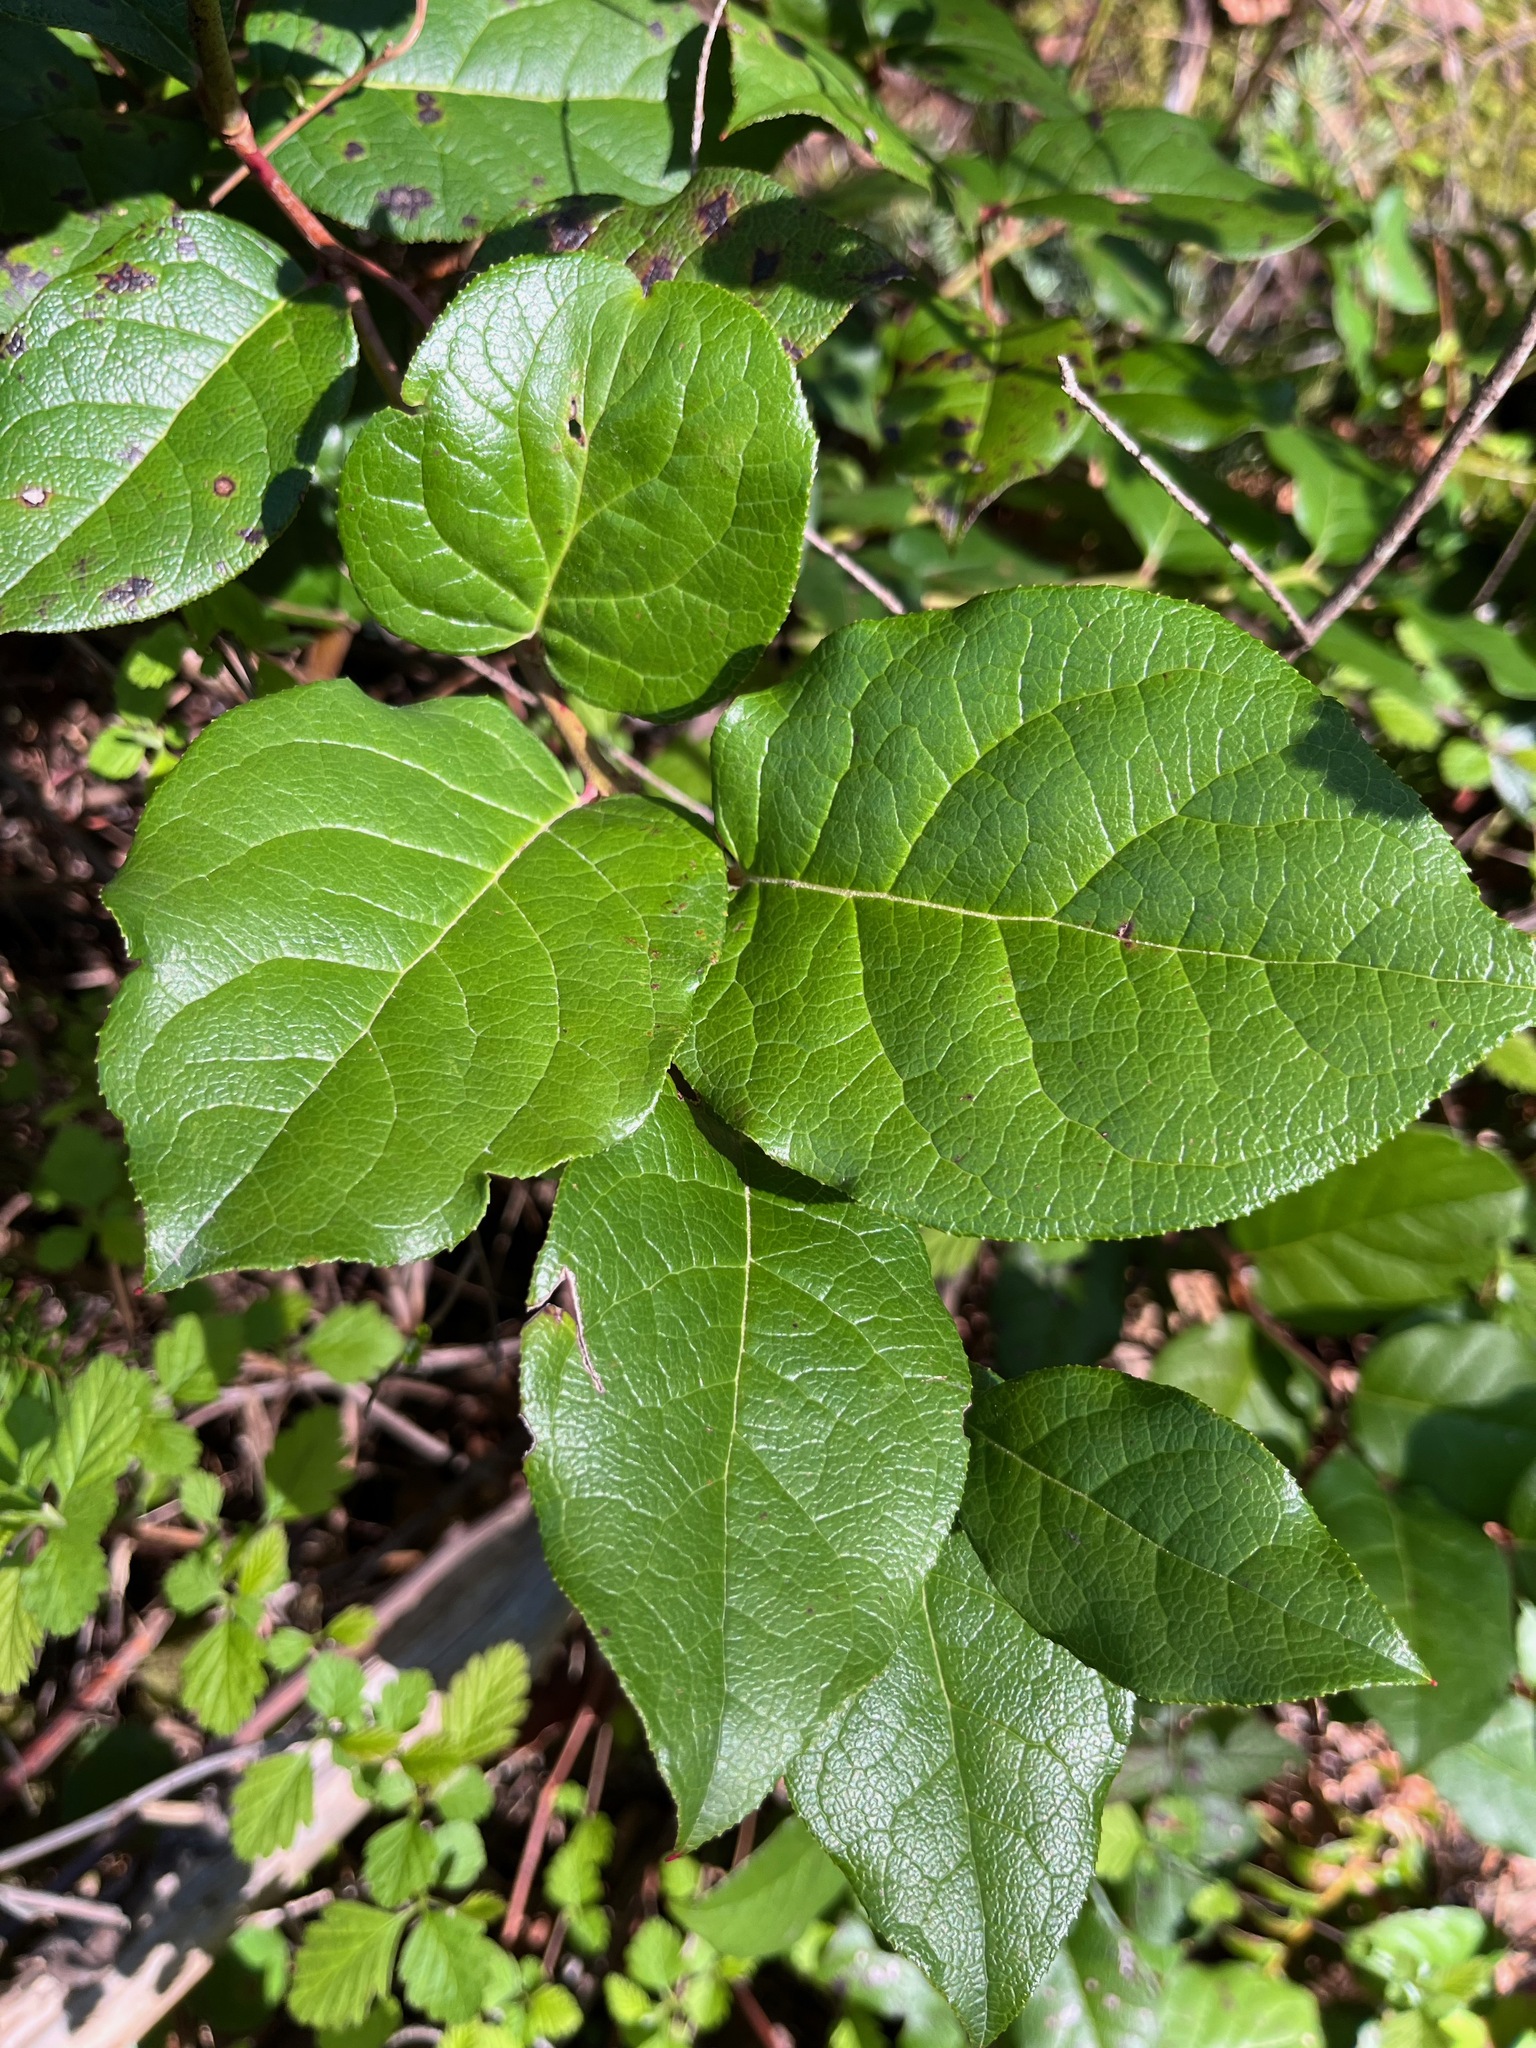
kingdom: Plantae
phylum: Tracheophyta
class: Magnoliopsida
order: Ericales
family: Ericaceae
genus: Gaultheria
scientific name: Gaultheria shallon
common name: Shallon
